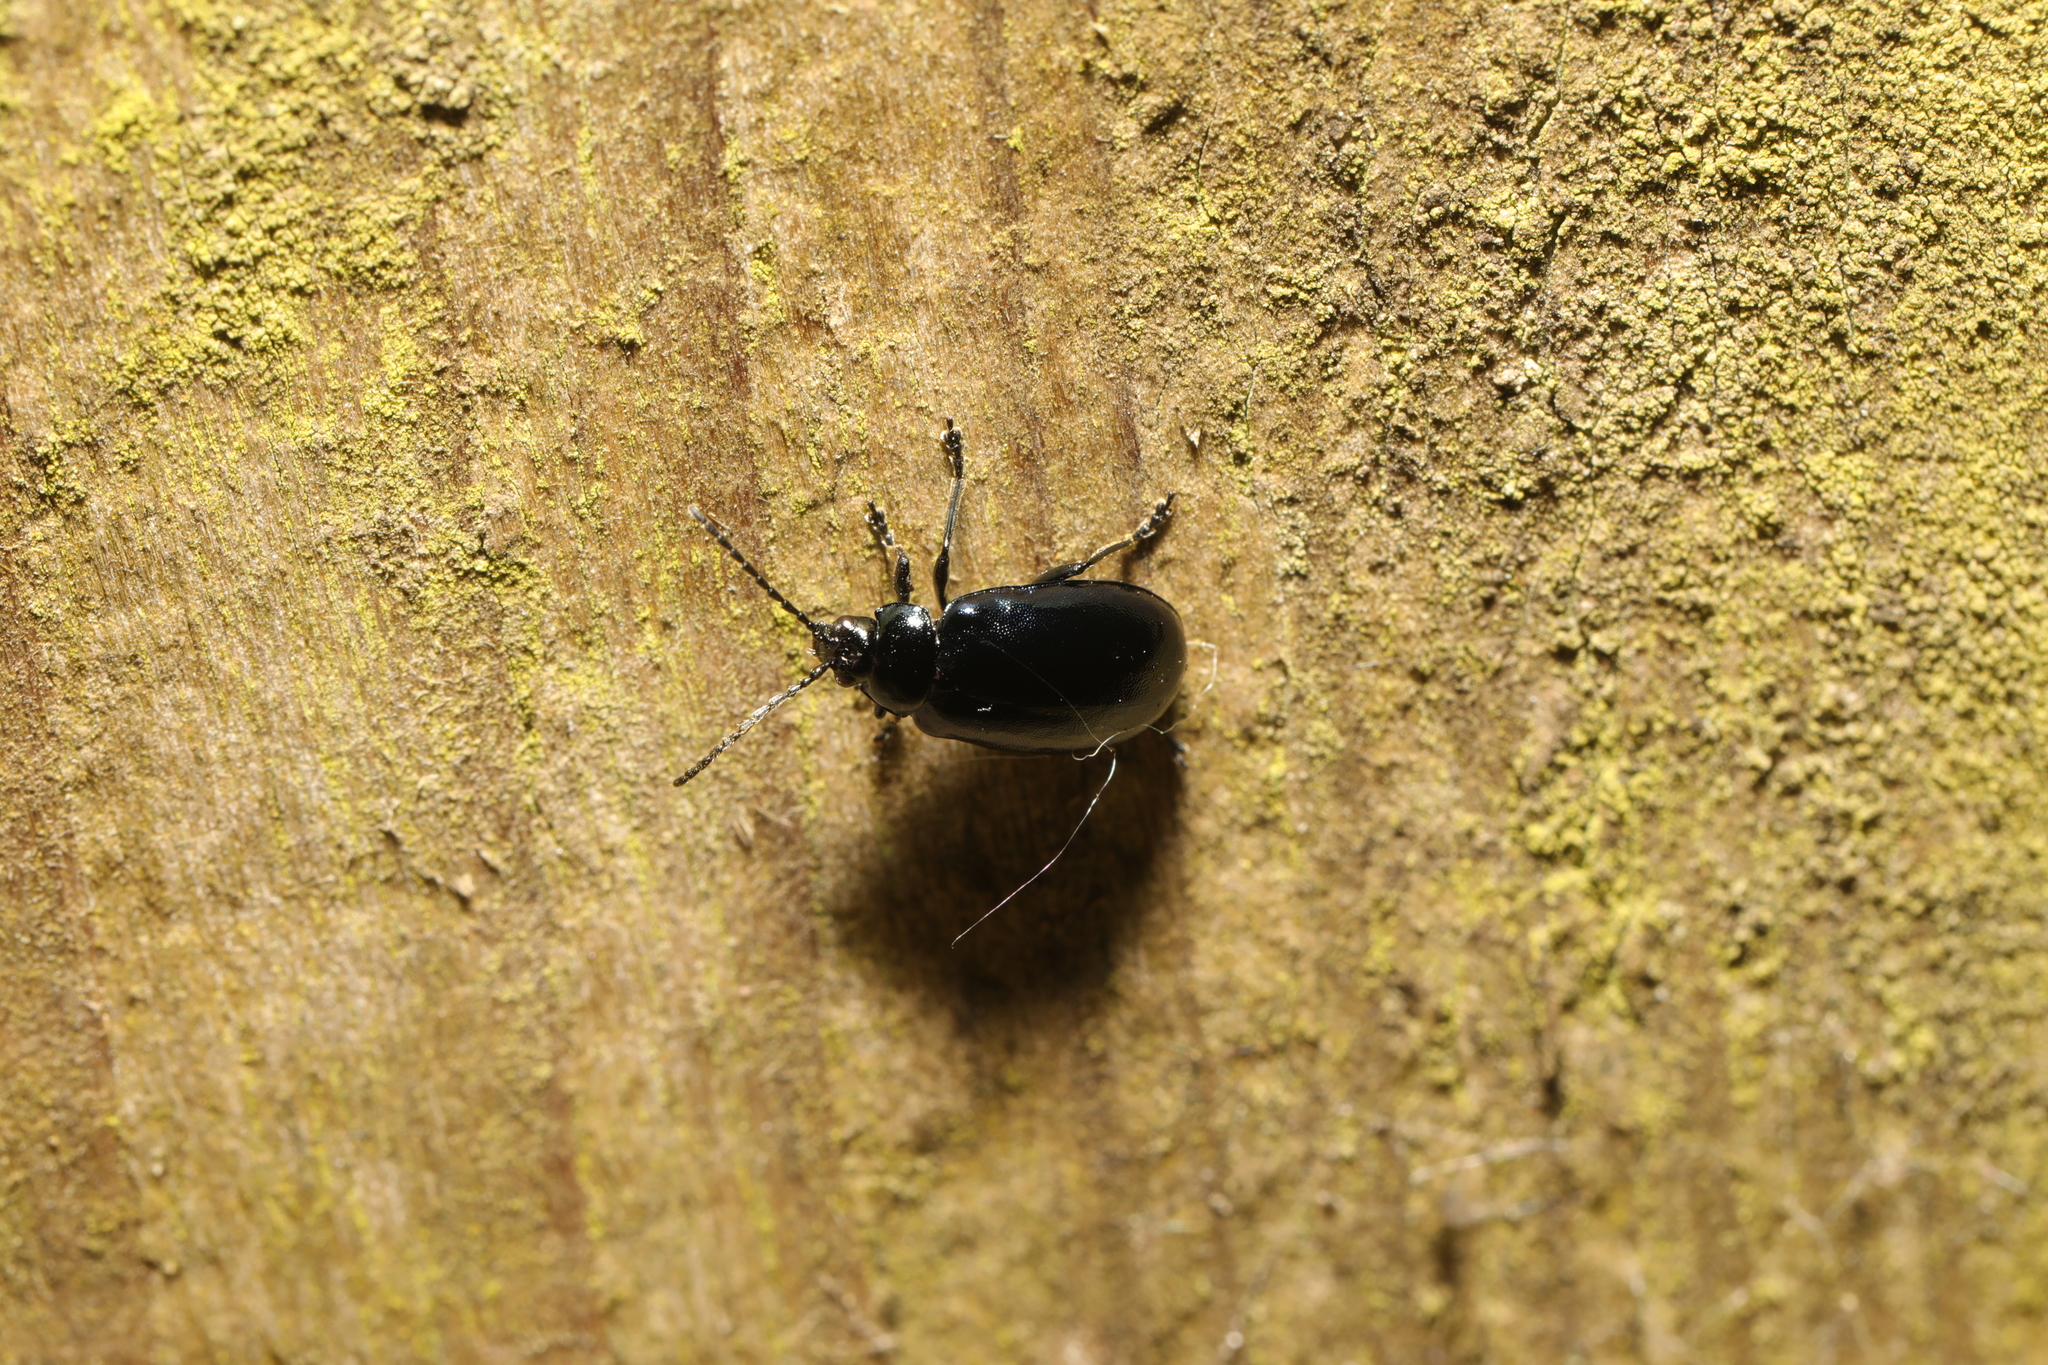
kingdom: Animalia
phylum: Arthropoda
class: Insecta
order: Coleoptera
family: Chrysomelidae
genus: Agelastica
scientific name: Agelastica alni
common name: Alder leaf beetle
